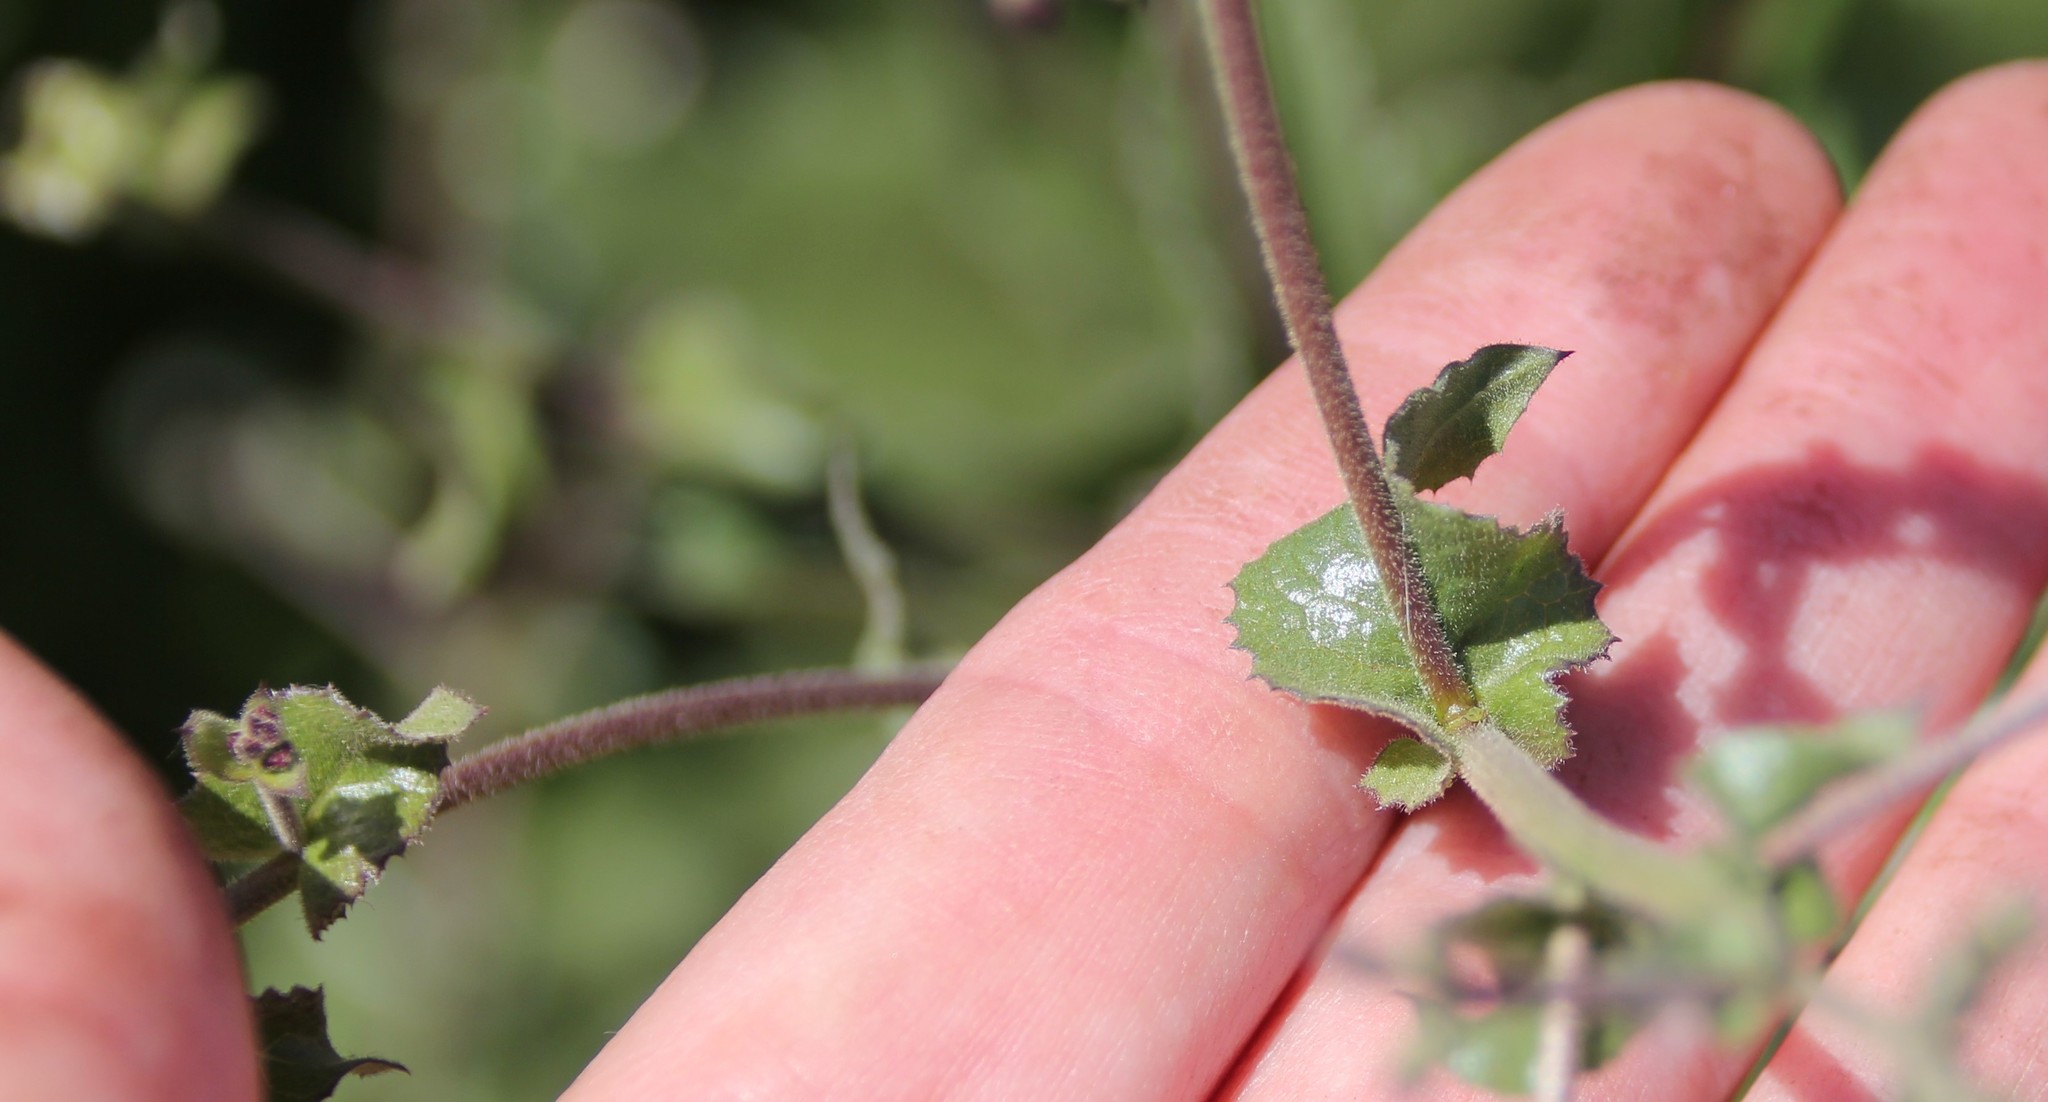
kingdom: Plantae
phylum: Tracheophyta
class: Magnoliopsida
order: Caryophyllales
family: Nyctaginaceae
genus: Mirabilis
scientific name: Mirabilis laevis
